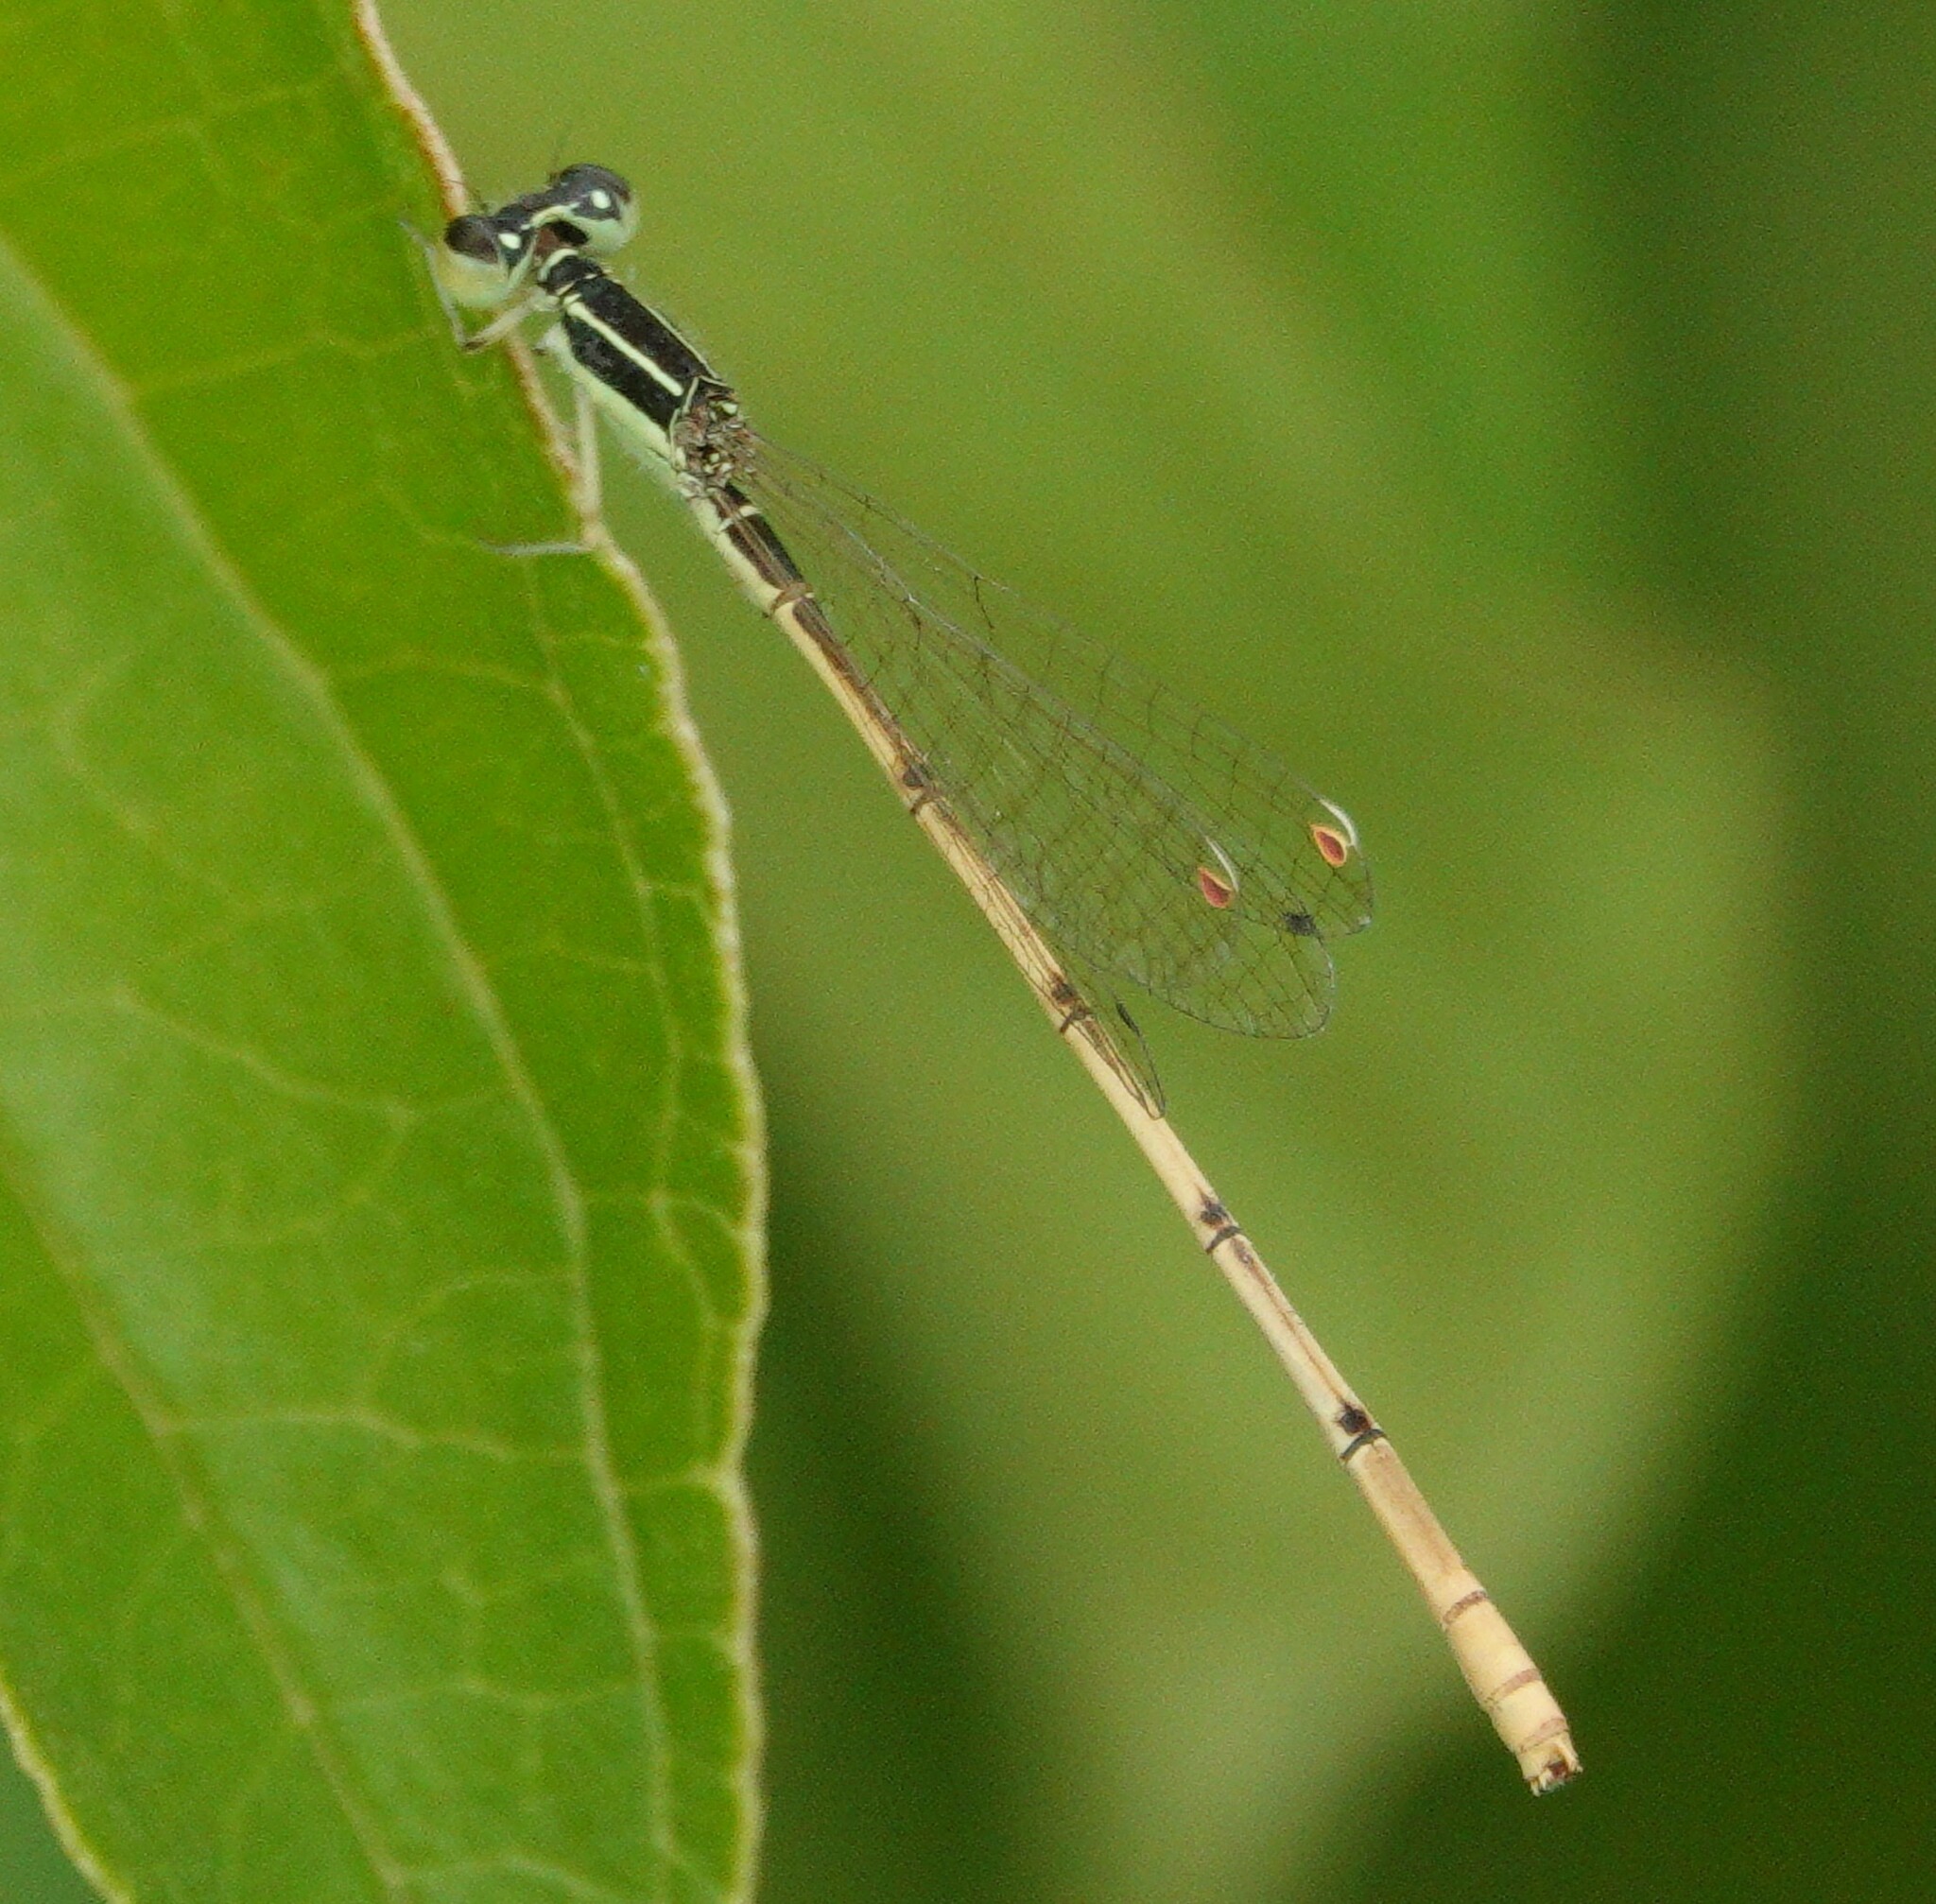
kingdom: Animalia
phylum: Arthropoda
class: Insecta
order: Odonata
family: Coenagrionidae
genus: Ischnura
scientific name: Ischnura hastata
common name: Citrine forktail
